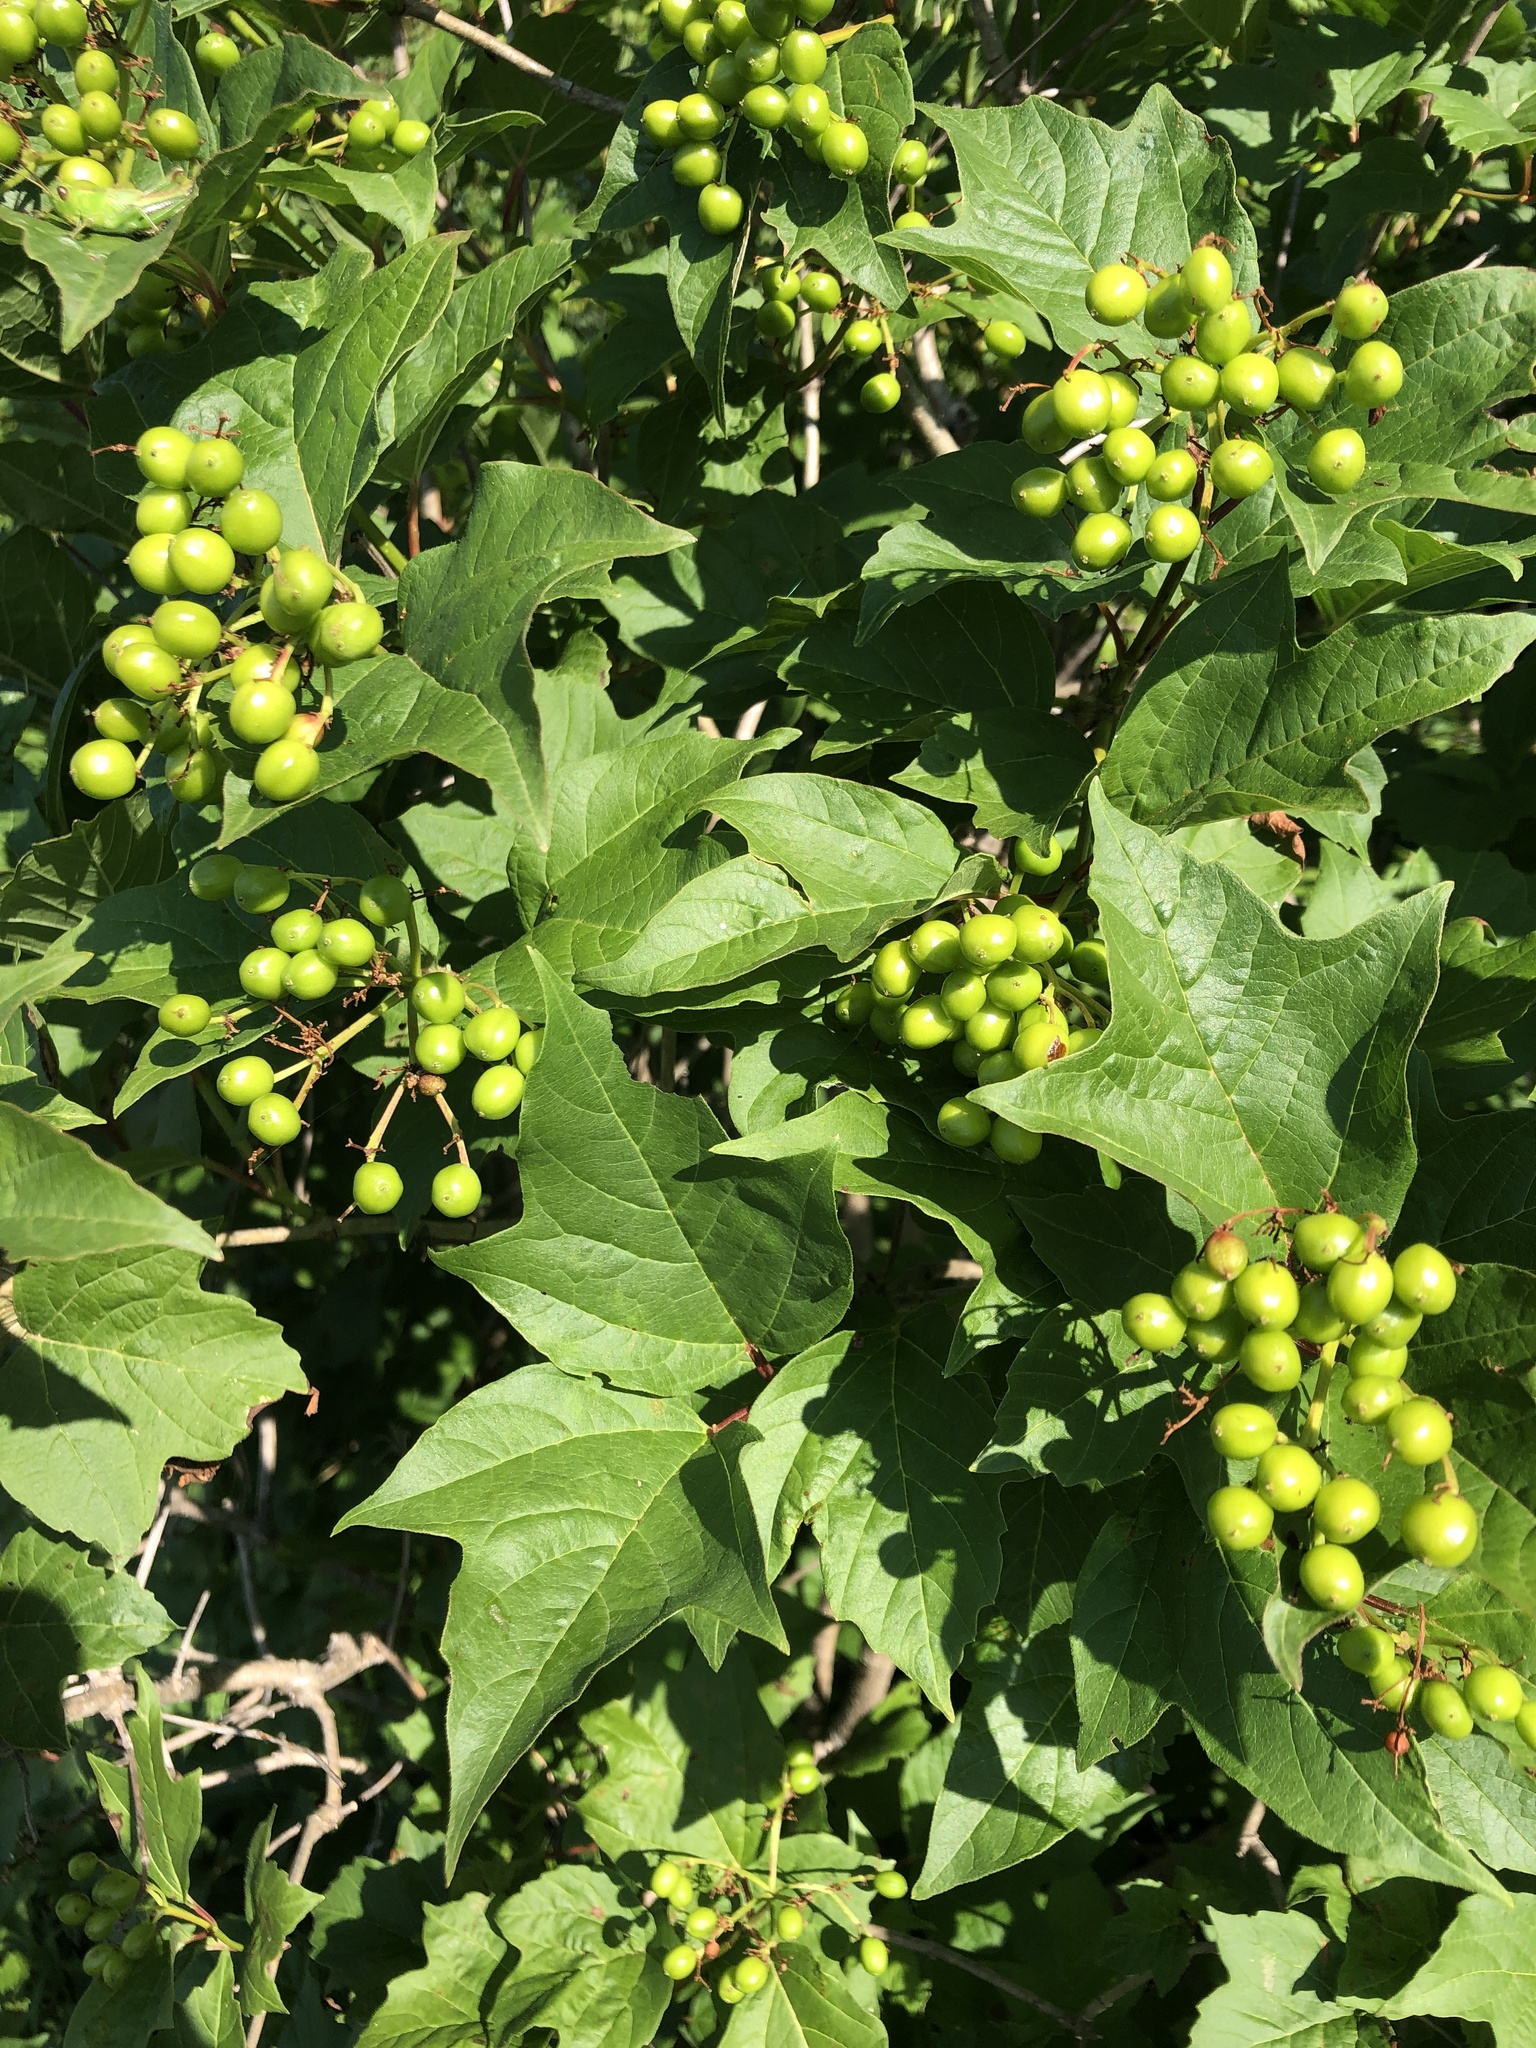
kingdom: Plantae
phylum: Tracheophyta
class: Magnoliopsida
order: Dipsacales
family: Viburnaceae
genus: Viburnum
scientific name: Viburnum opulus
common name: Guelder-rose
